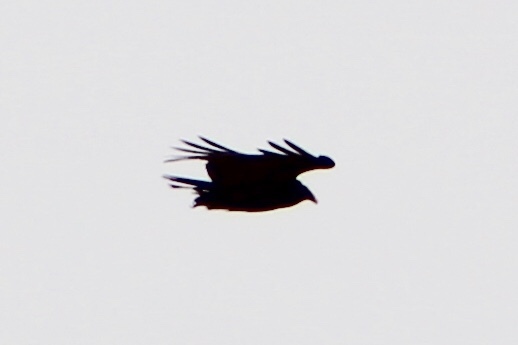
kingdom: Animalia
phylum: Chordata
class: Aves
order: Accipitriformes
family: Cathartidae
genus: Cathartes
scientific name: Cathartes aura
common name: Turkey vulture
